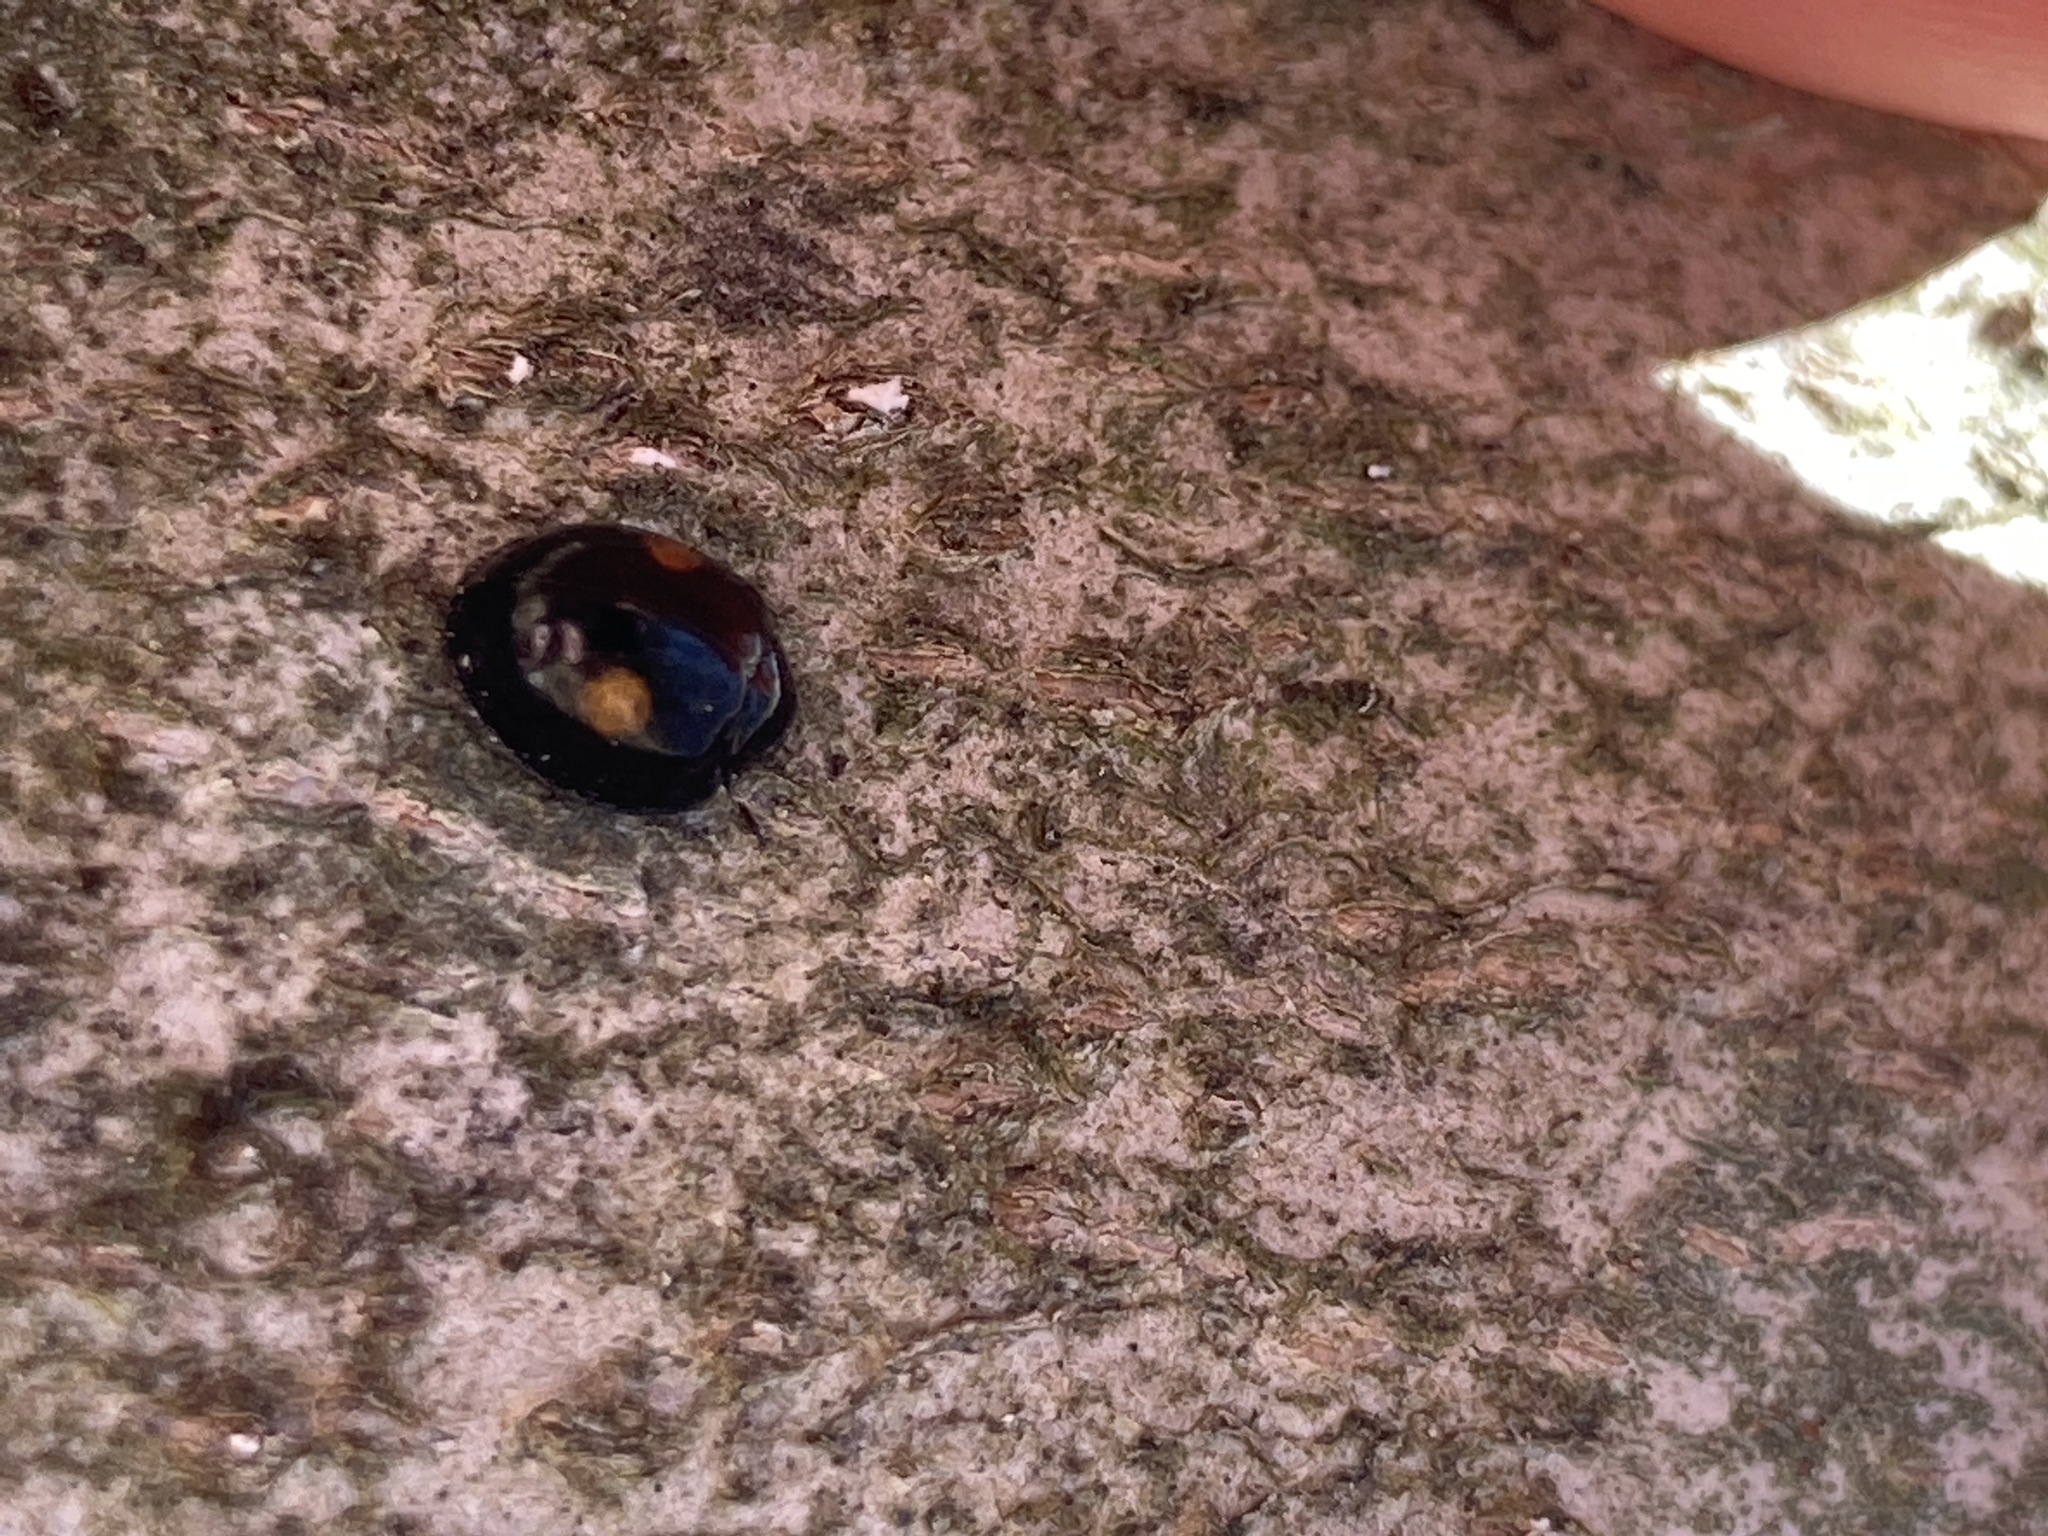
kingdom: Animalia
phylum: Arthropoda
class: Insecta
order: Coleoptera
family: Coccinellidae
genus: Chilocorus
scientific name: Chilocorus stigma
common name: Twicestabbed lady beetle
